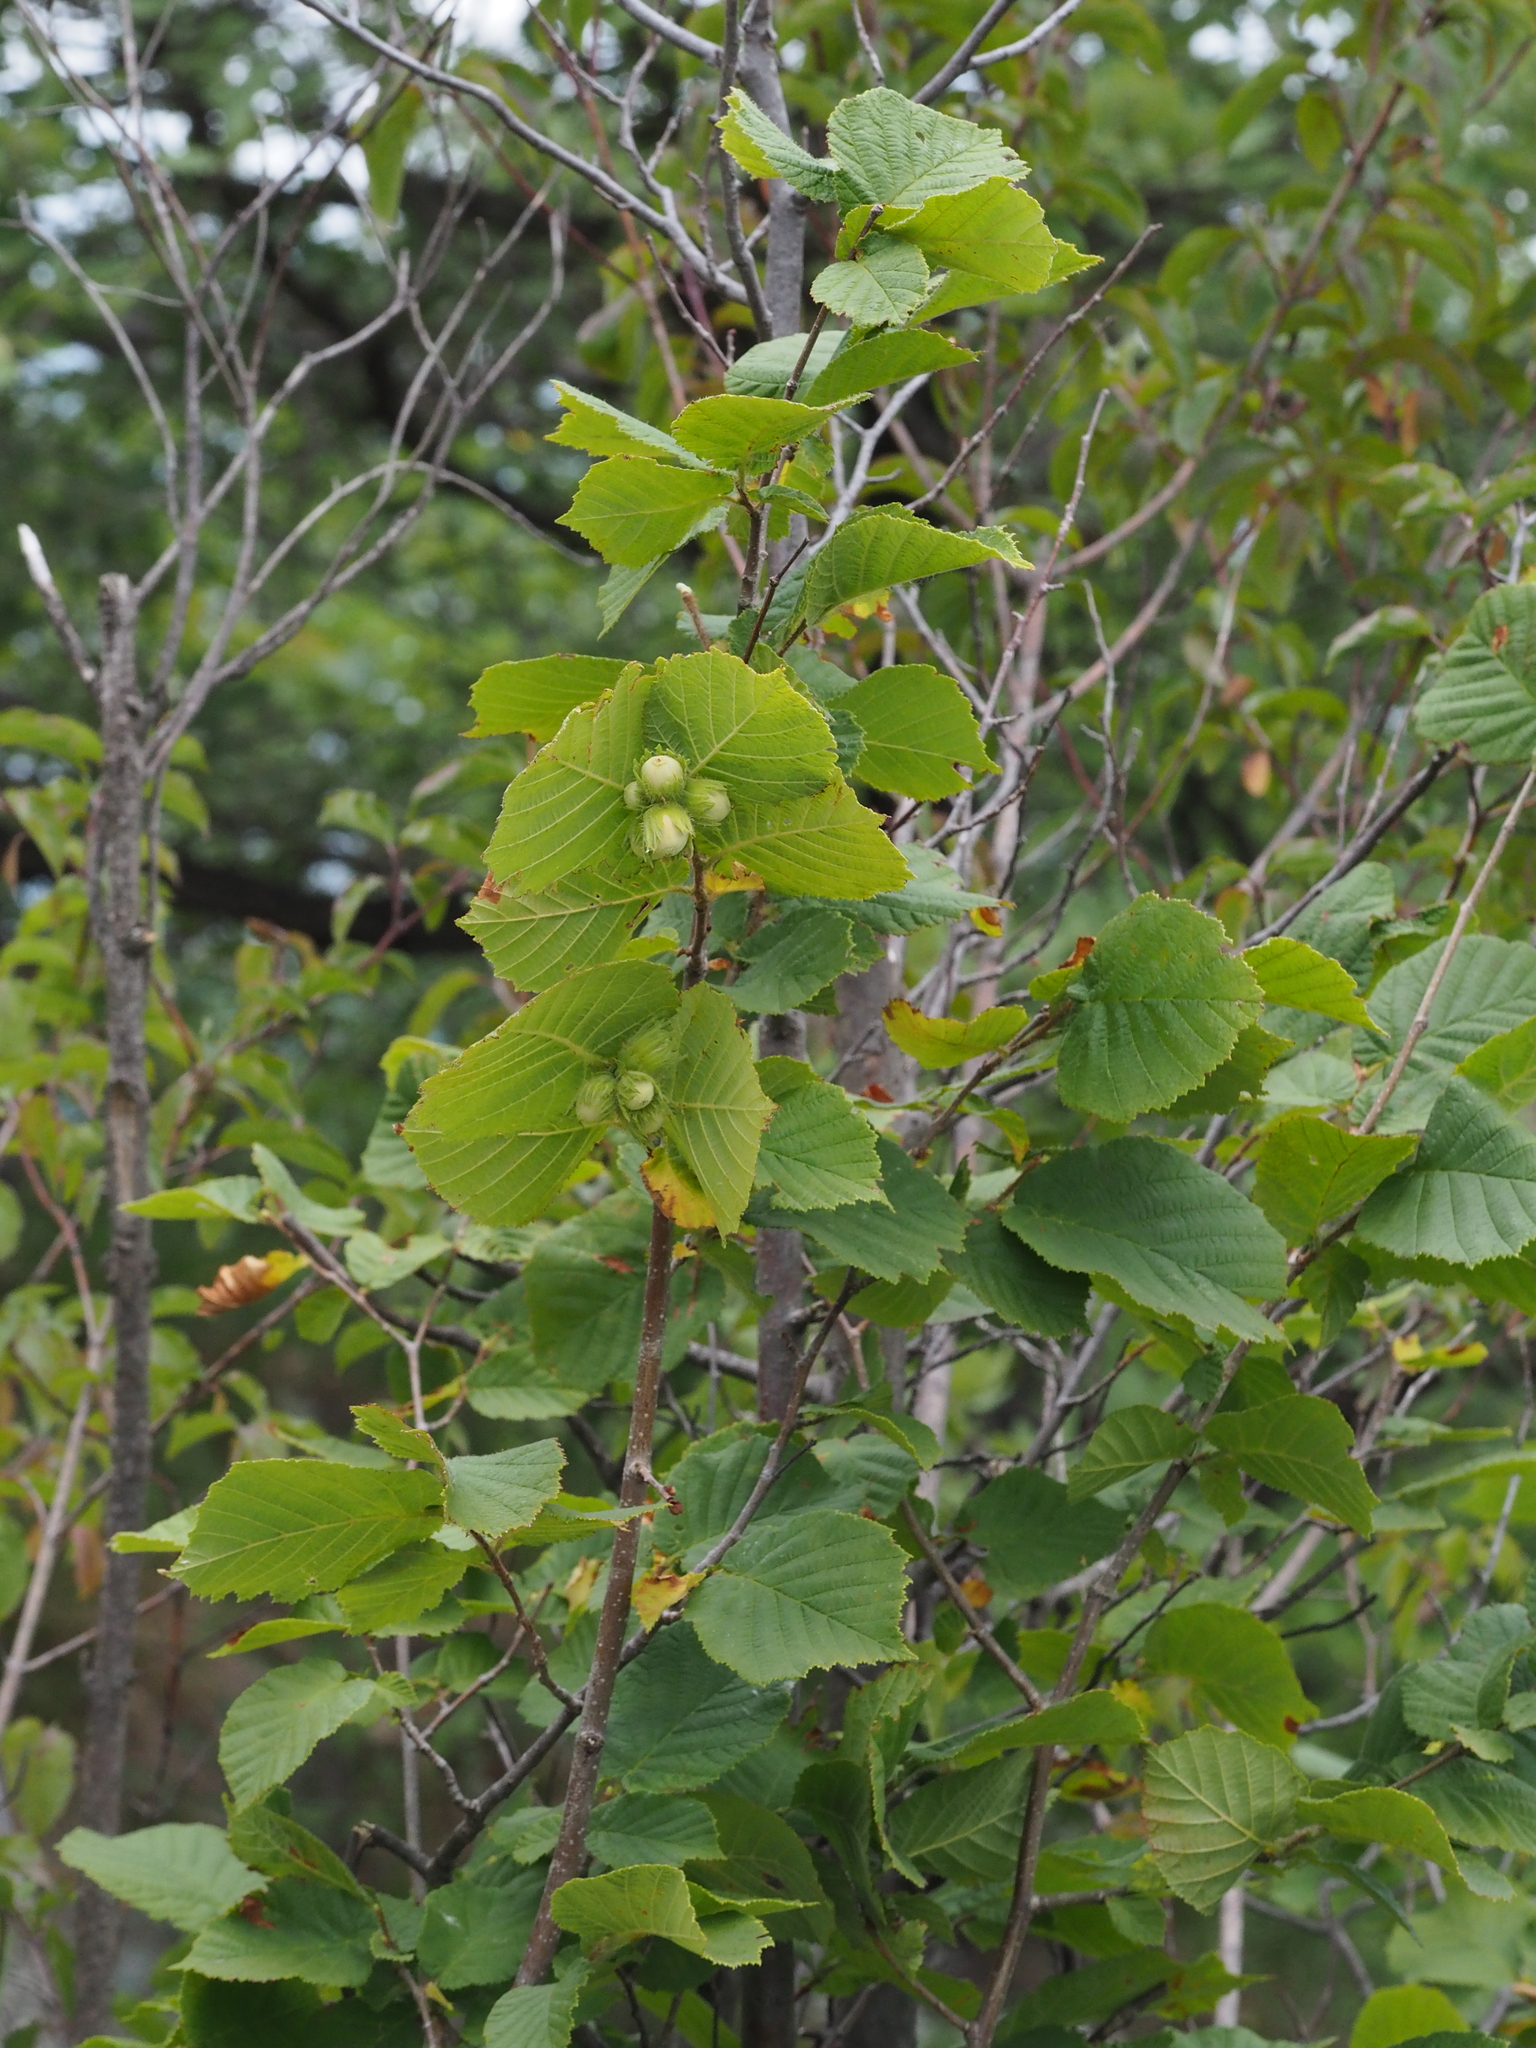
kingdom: Plantae
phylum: Tracheophyta
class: Magnoliopsida
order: Fagales
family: Betulaceae
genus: Corylus
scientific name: Corylus avellana
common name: European hazel
